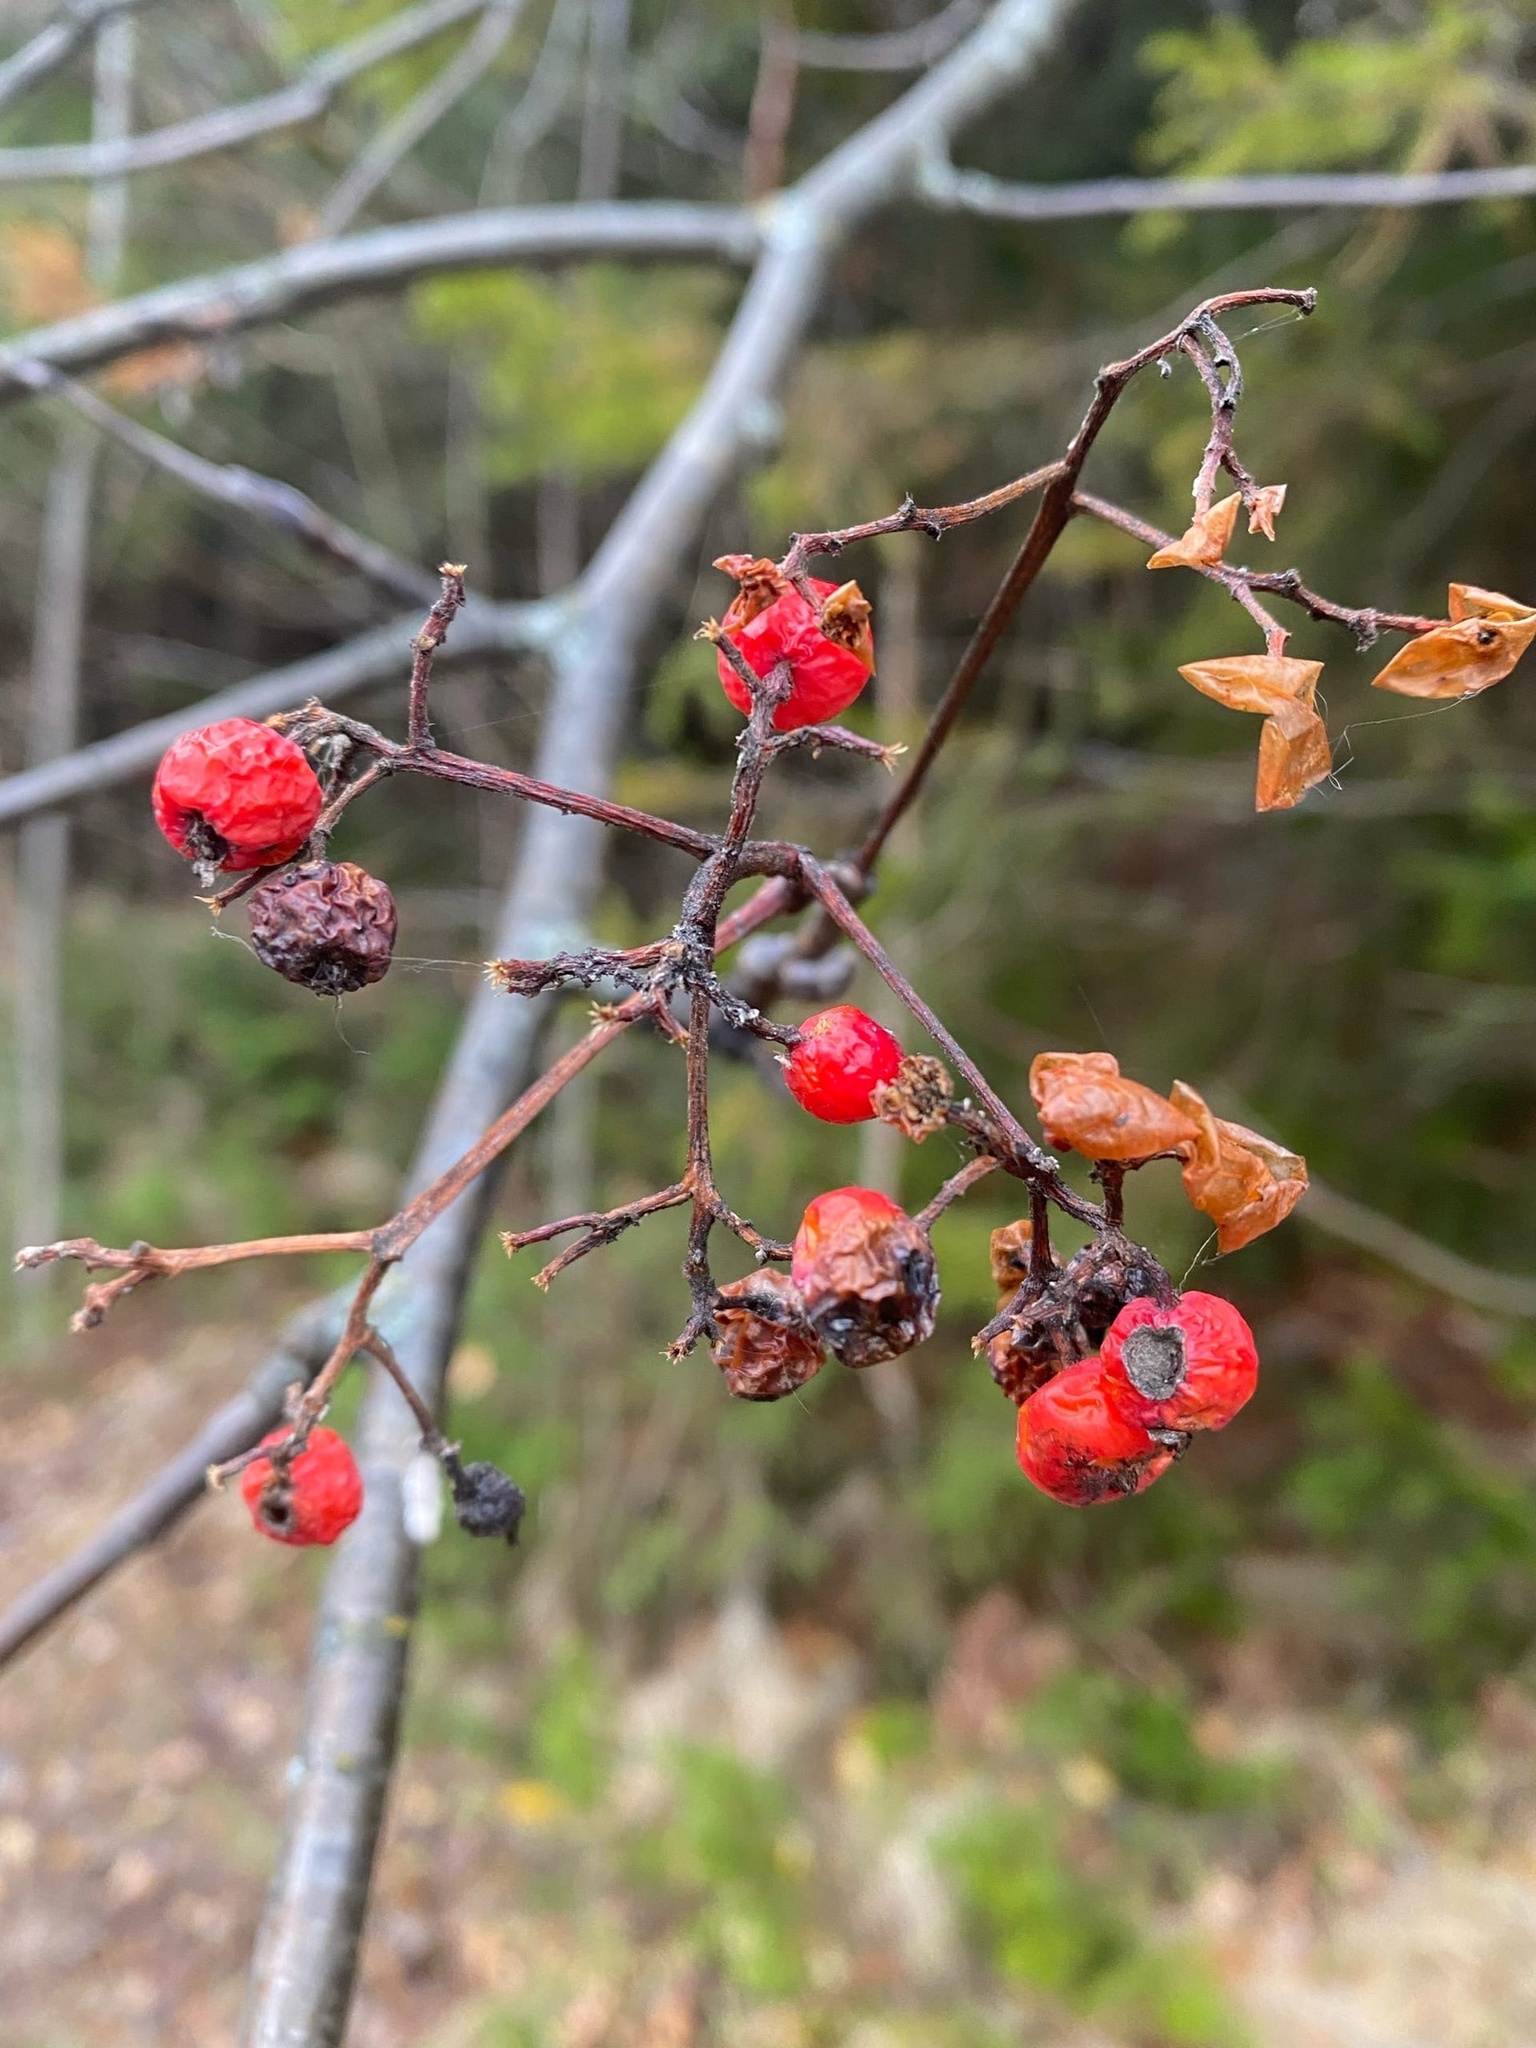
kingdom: Plantae
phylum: Tracheophyta
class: Magnoliopsida
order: Rosales
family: Rosaceae
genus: Sorbus
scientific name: Sorbus aucuparia
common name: Rowan
